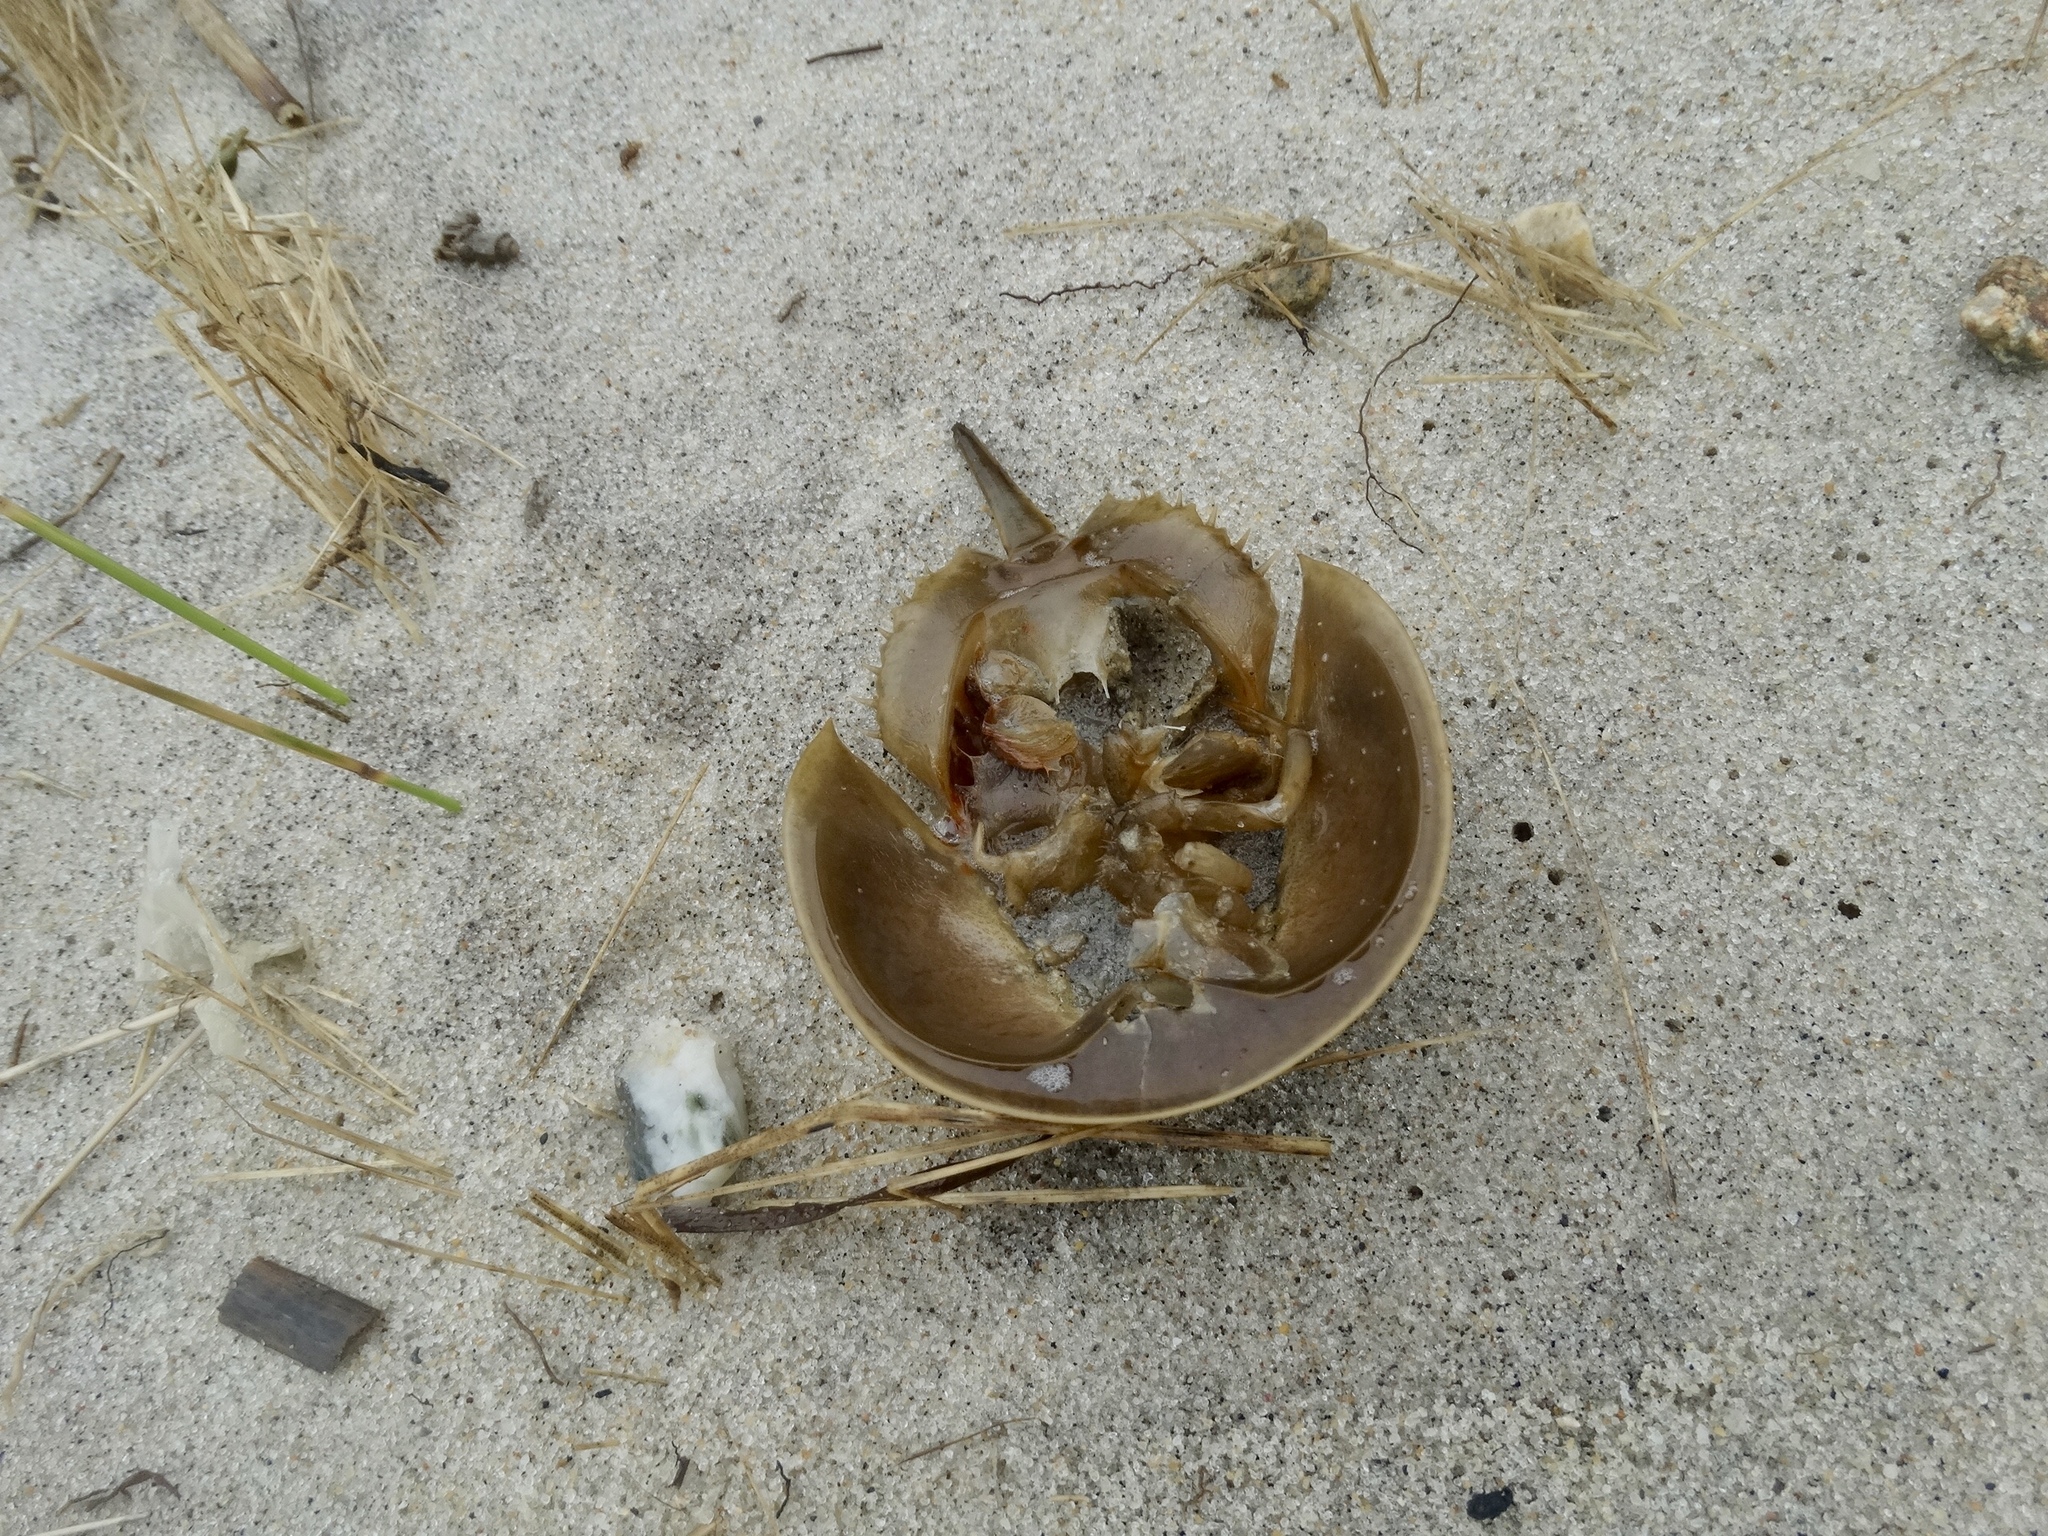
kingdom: Animalia
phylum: Arthropoda
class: Merostomata
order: Xiphosurida
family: Limulidae
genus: Limulus
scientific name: Limulus polyphemus
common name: Horseshoe crab
